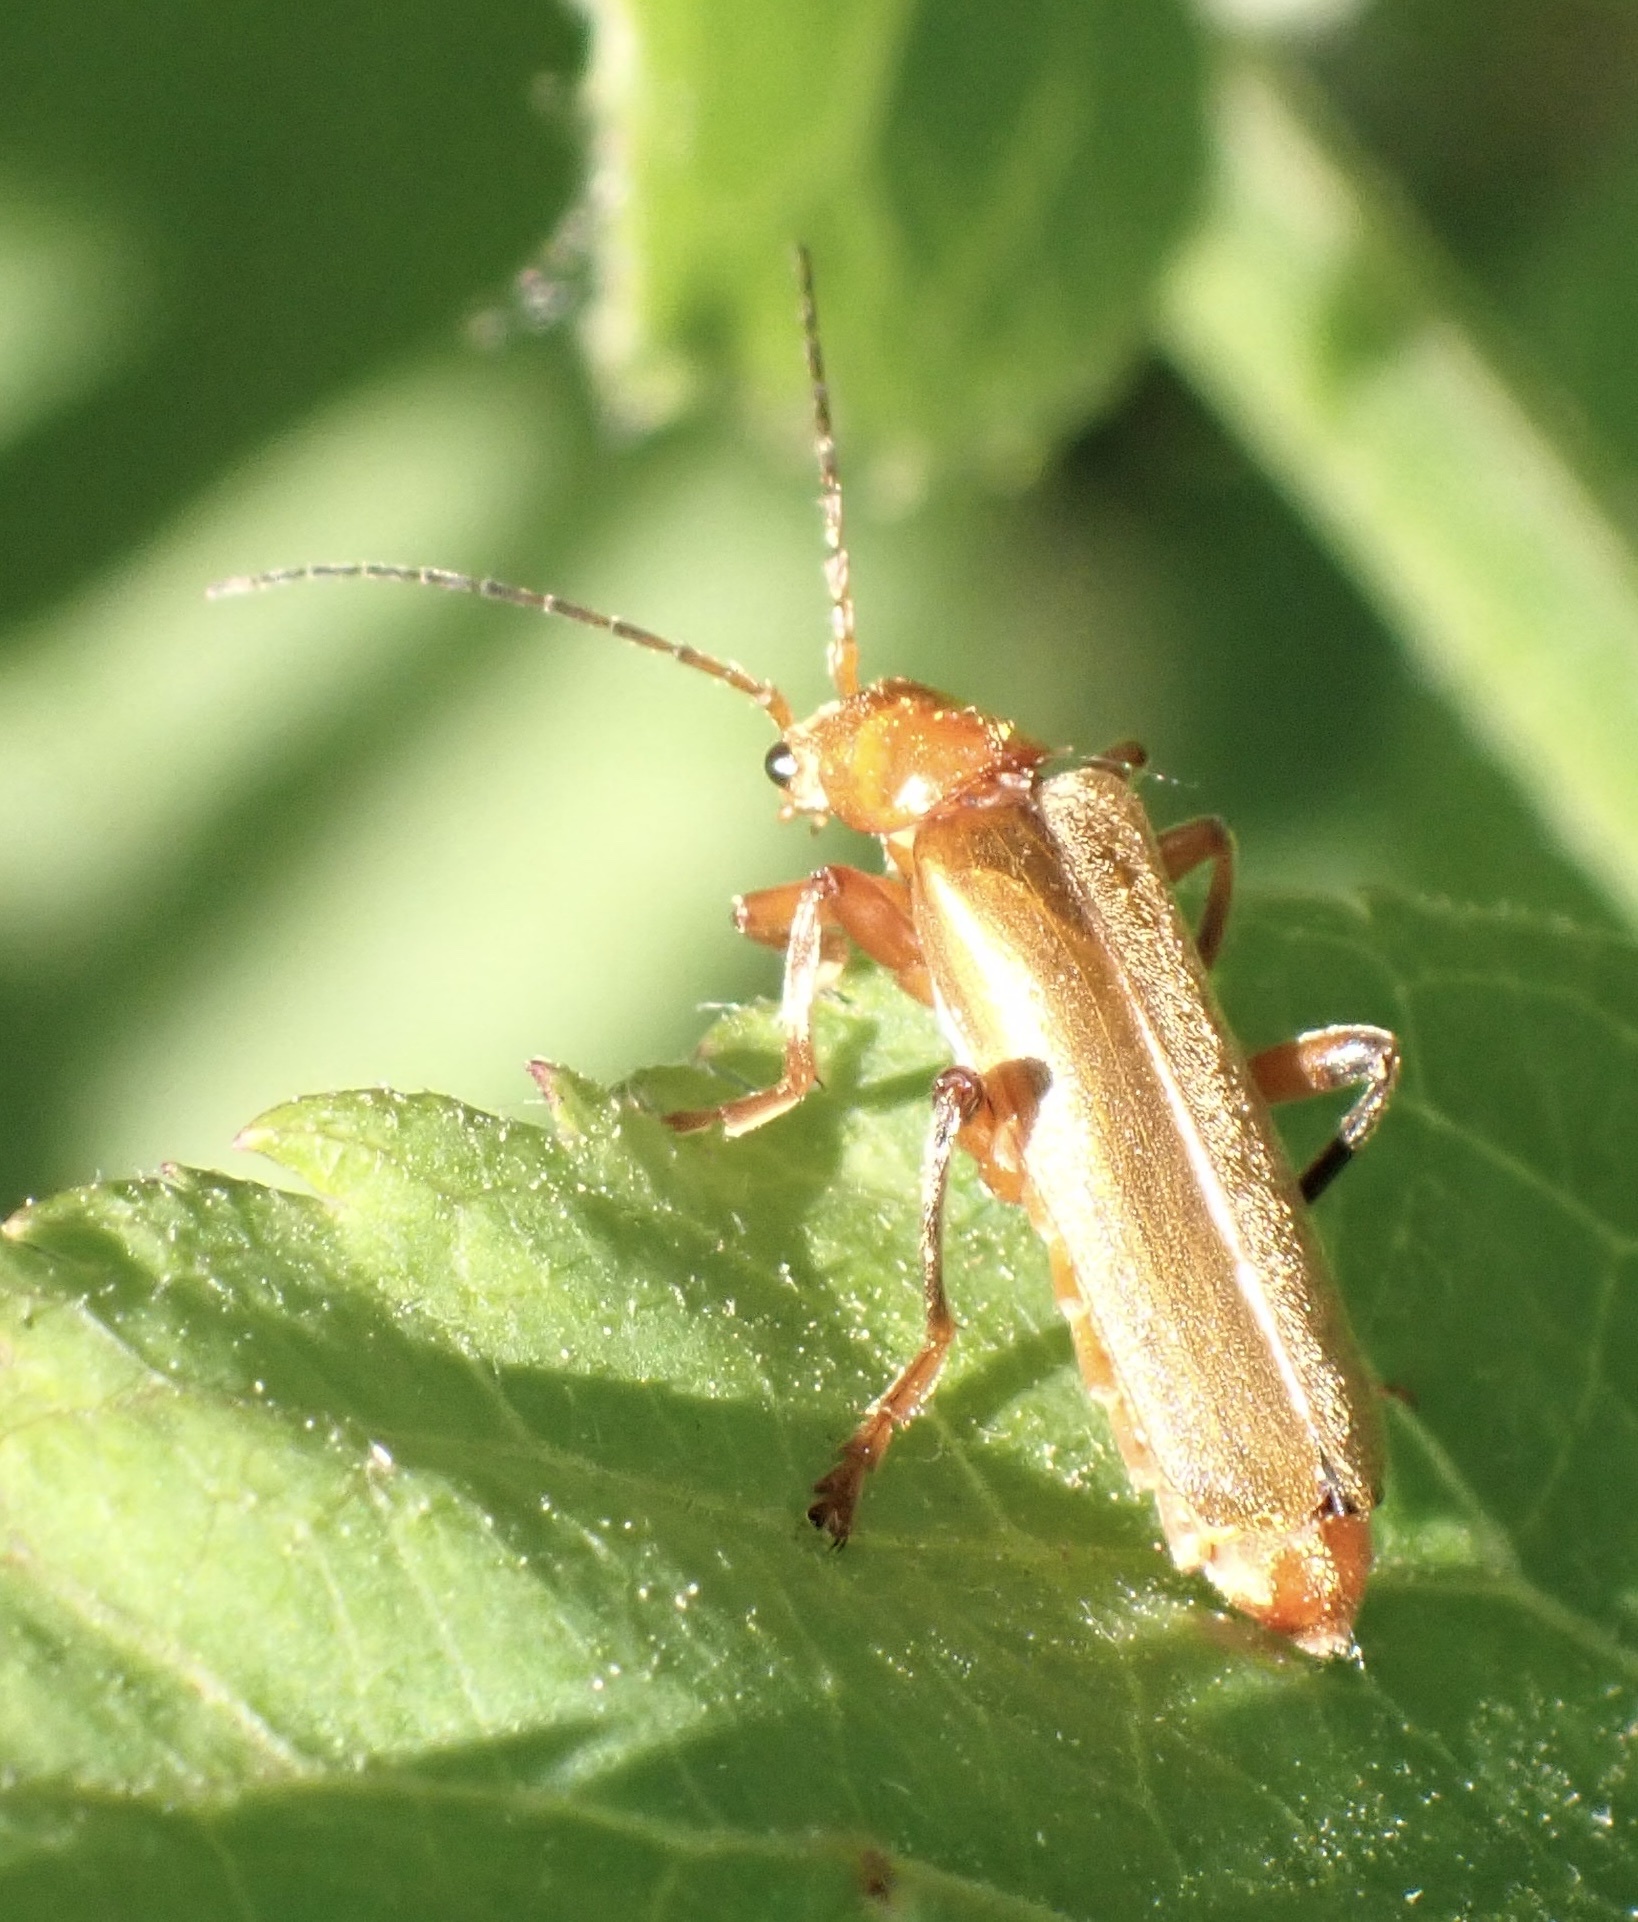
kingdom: Animalia
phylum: Arthropoda
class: Insecta
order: Coleoptera
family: Cantharidae
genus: Cantharis
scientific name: Cantharis livida
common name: Livid soldier beetle
